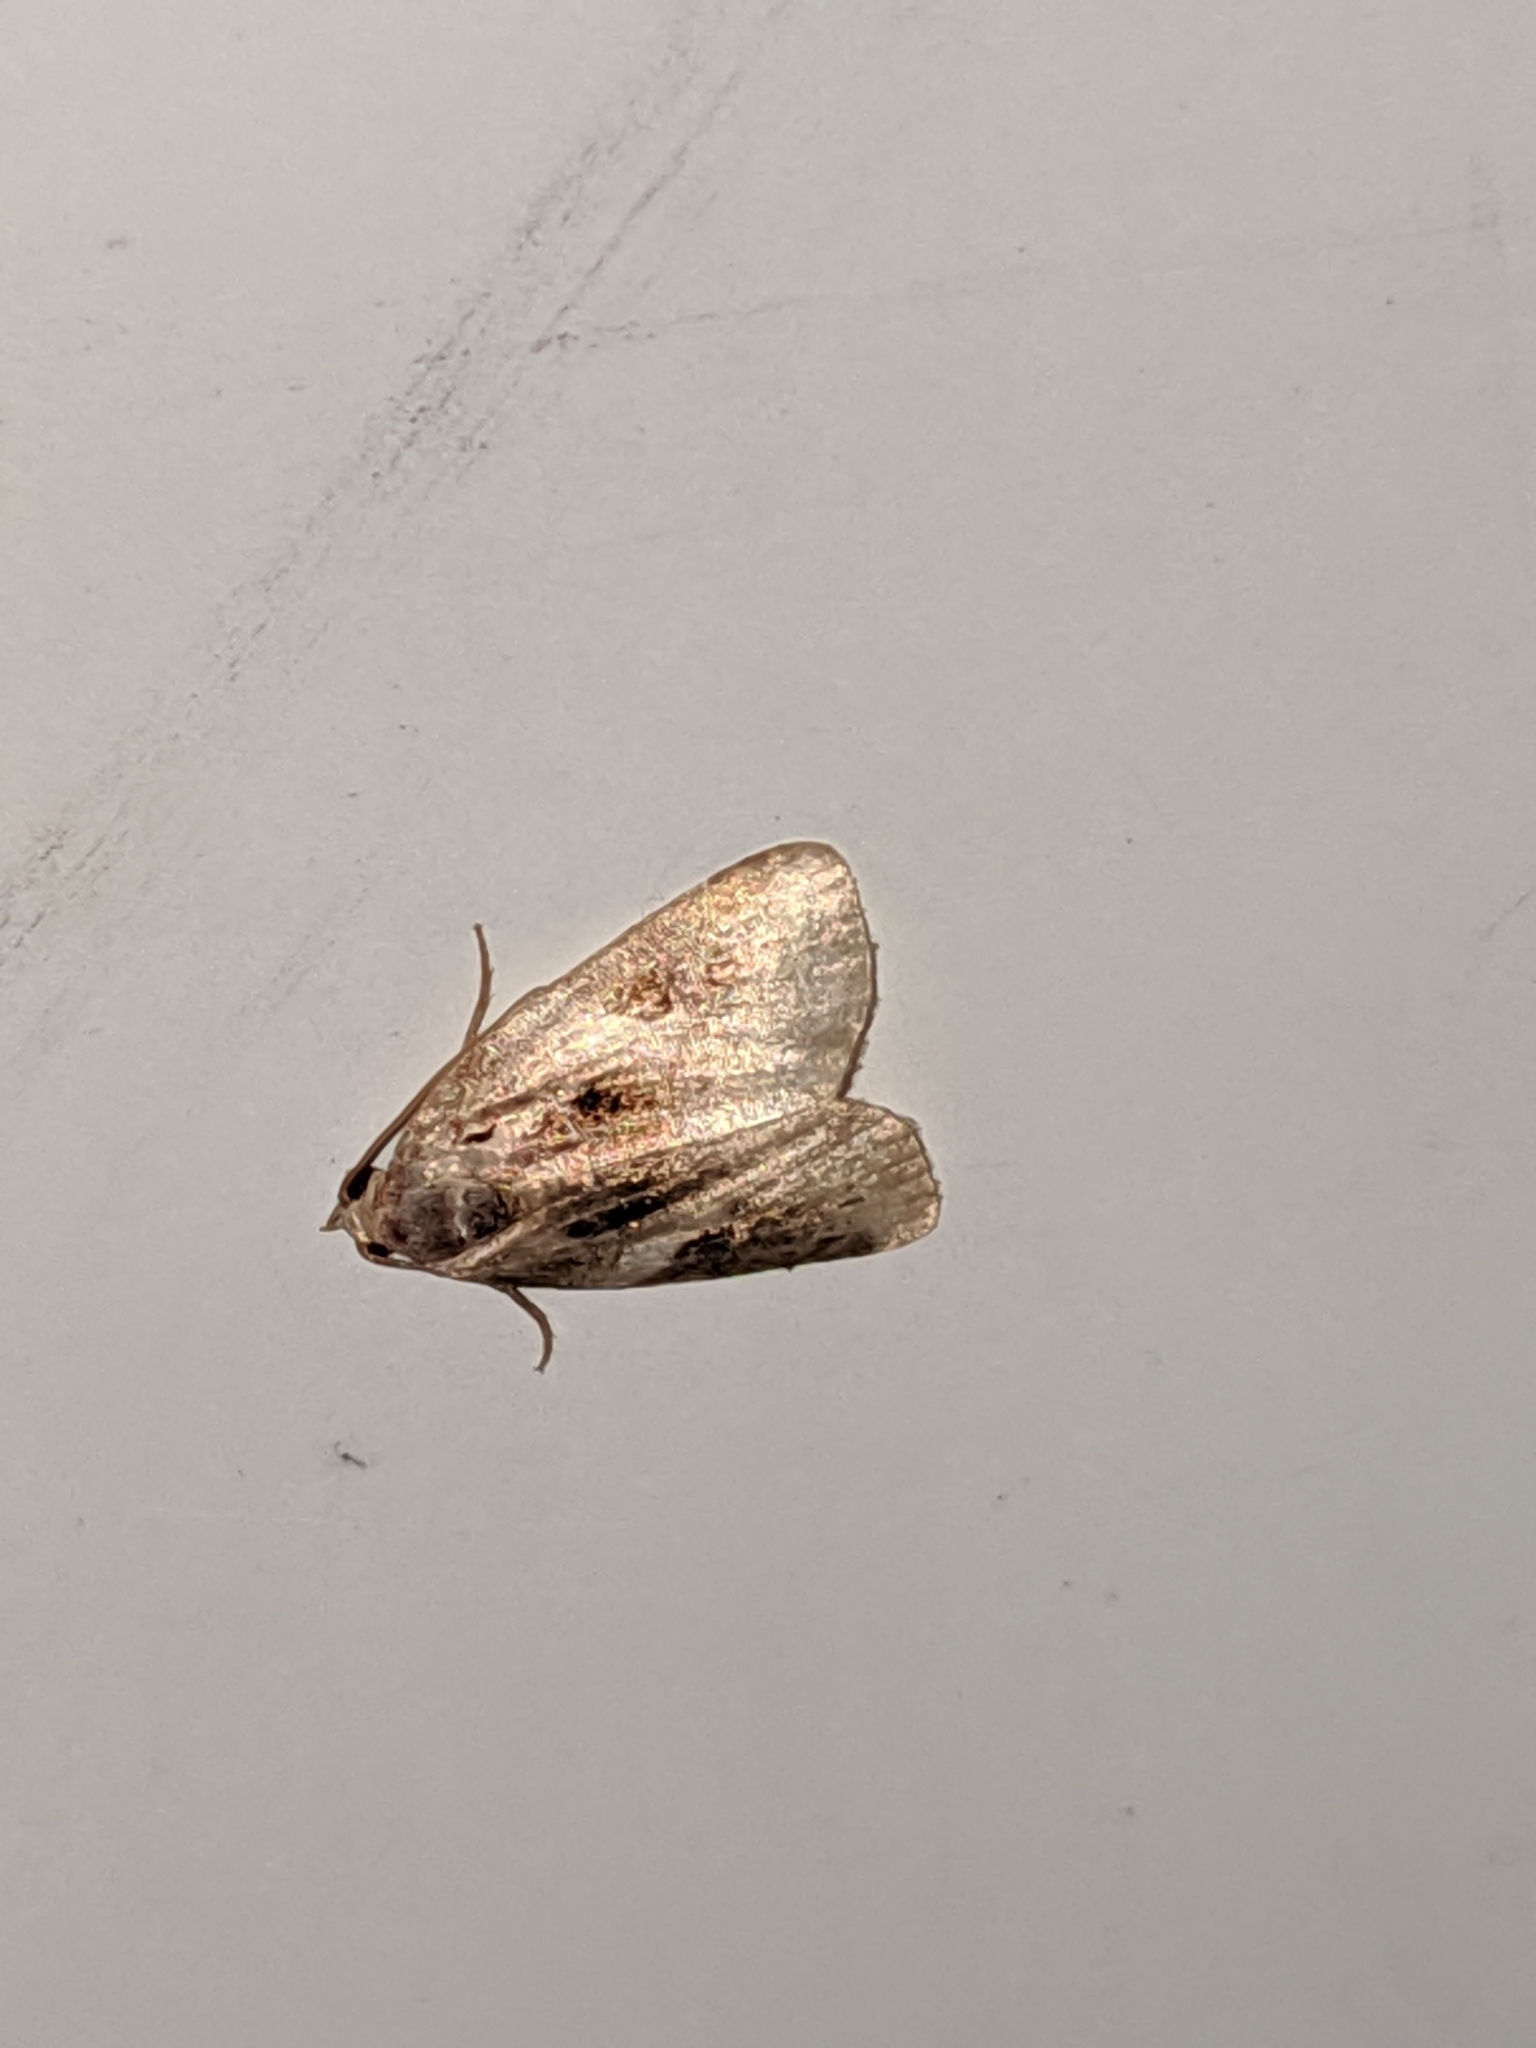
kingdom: Animalia
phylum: Arthropoda
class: Insecta
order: Lepidoptera
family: Noctuidae
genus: Pseudeustrotia
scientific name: Pseudeustrotia carneola
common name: Pink-barred lithacodia moth
